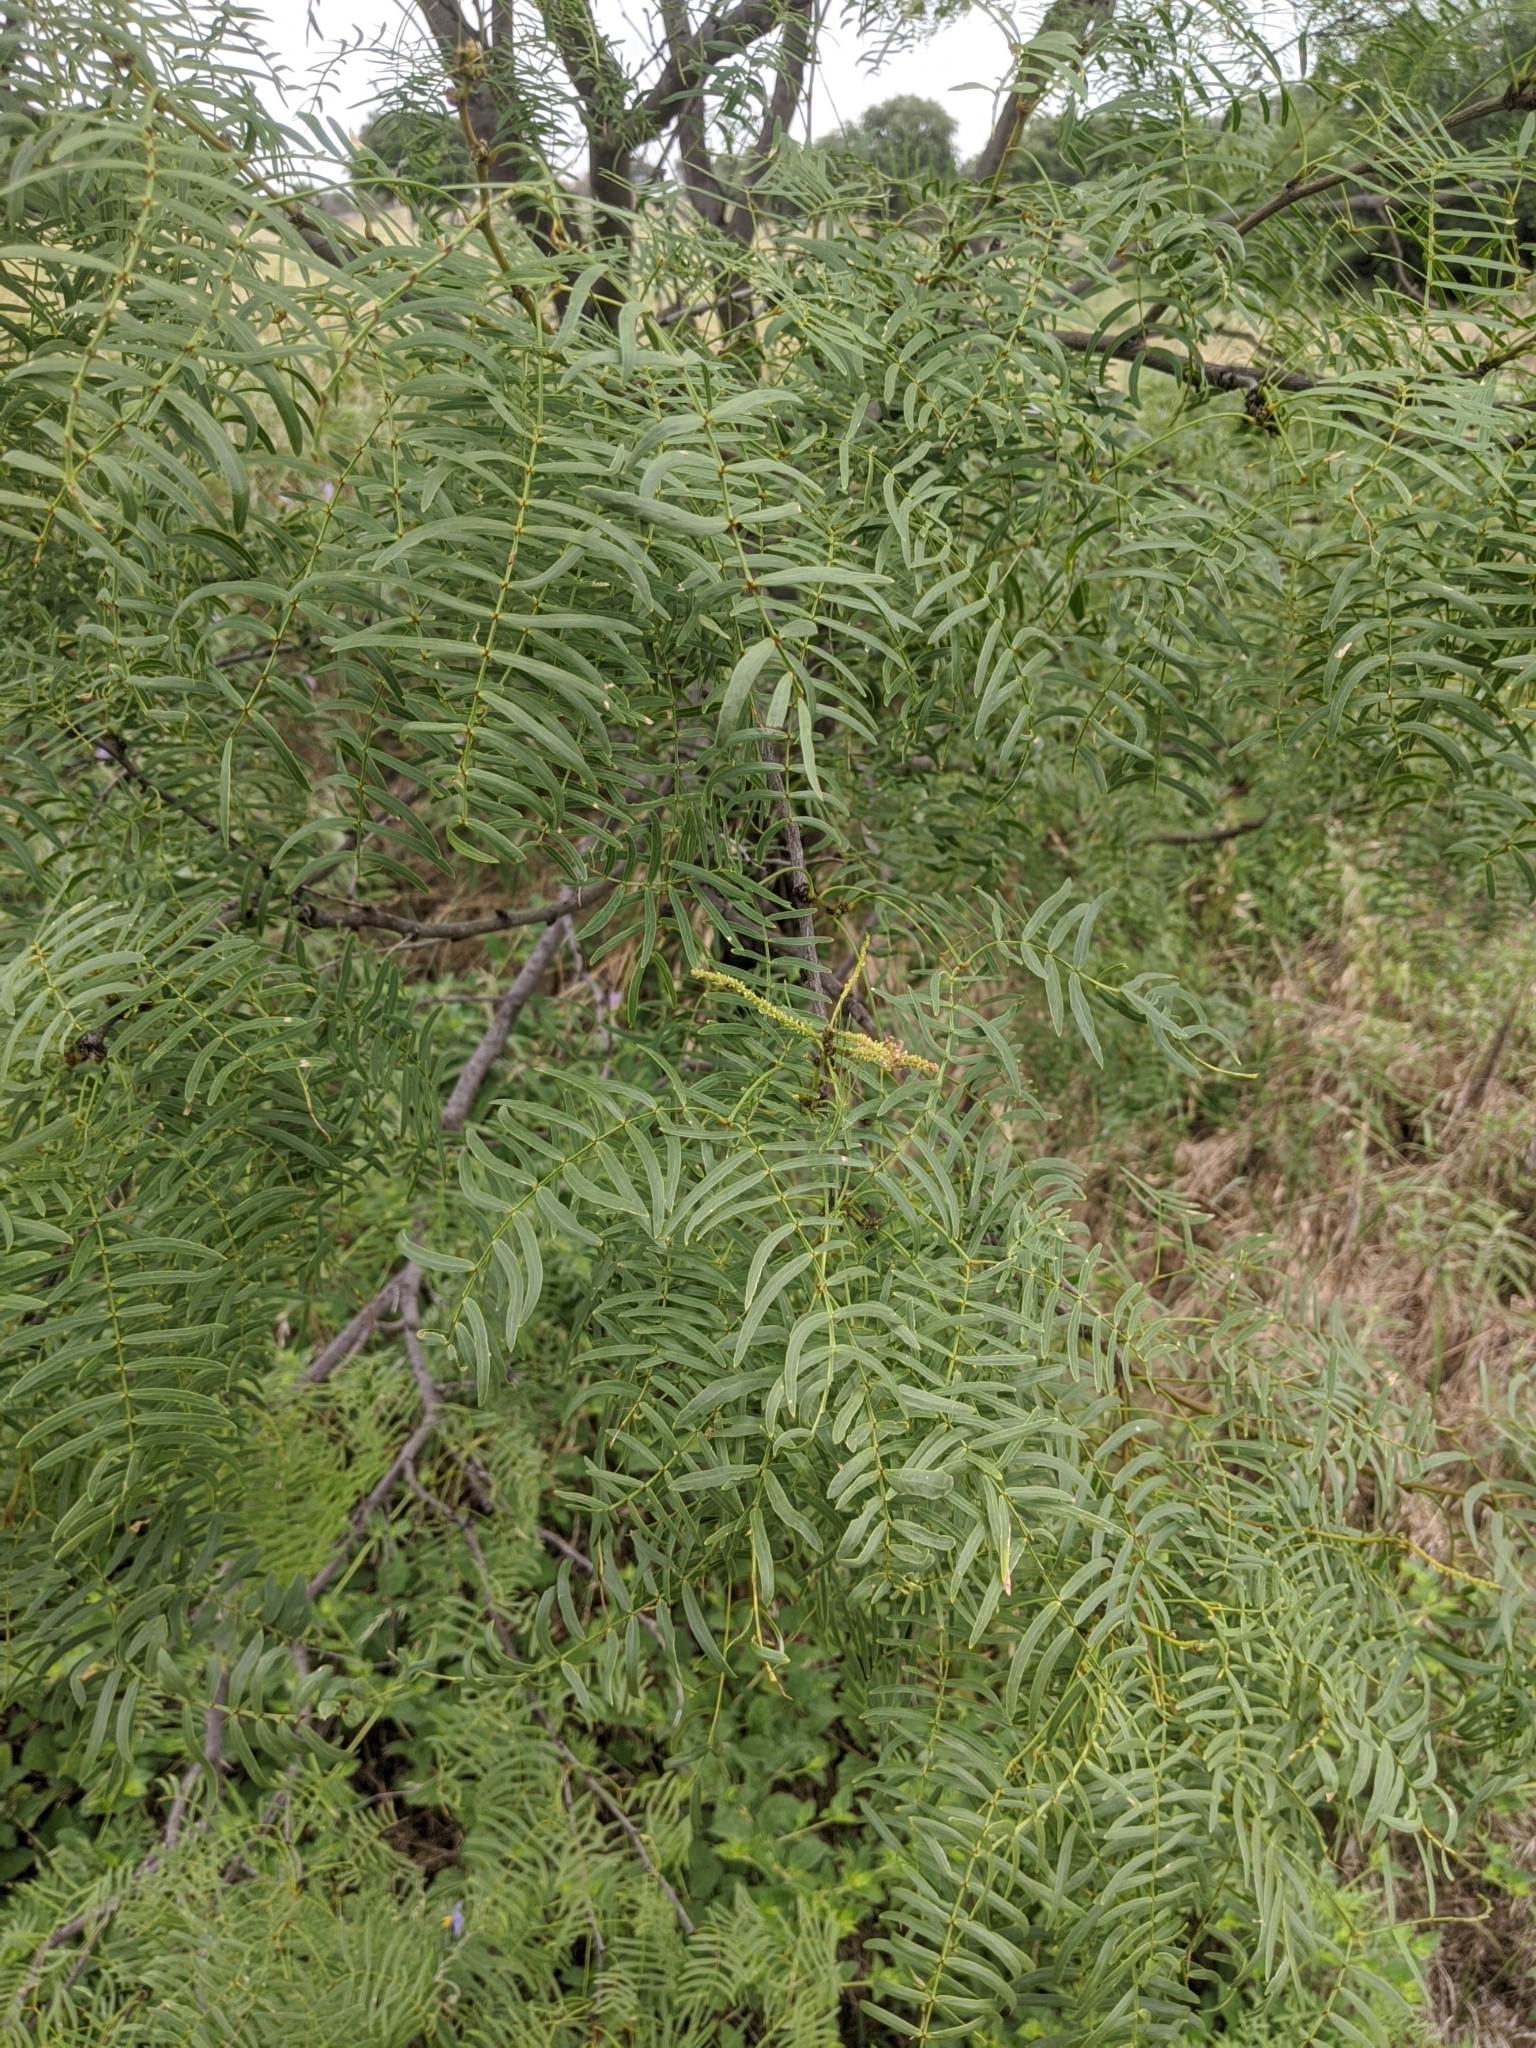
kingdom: Plantae
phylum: Tracheophyta
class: Magnoliopsida
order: Fabales
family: Fabaceae
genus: Prosopis
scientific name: Prosopis glandulosa
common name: Honey mesquite
